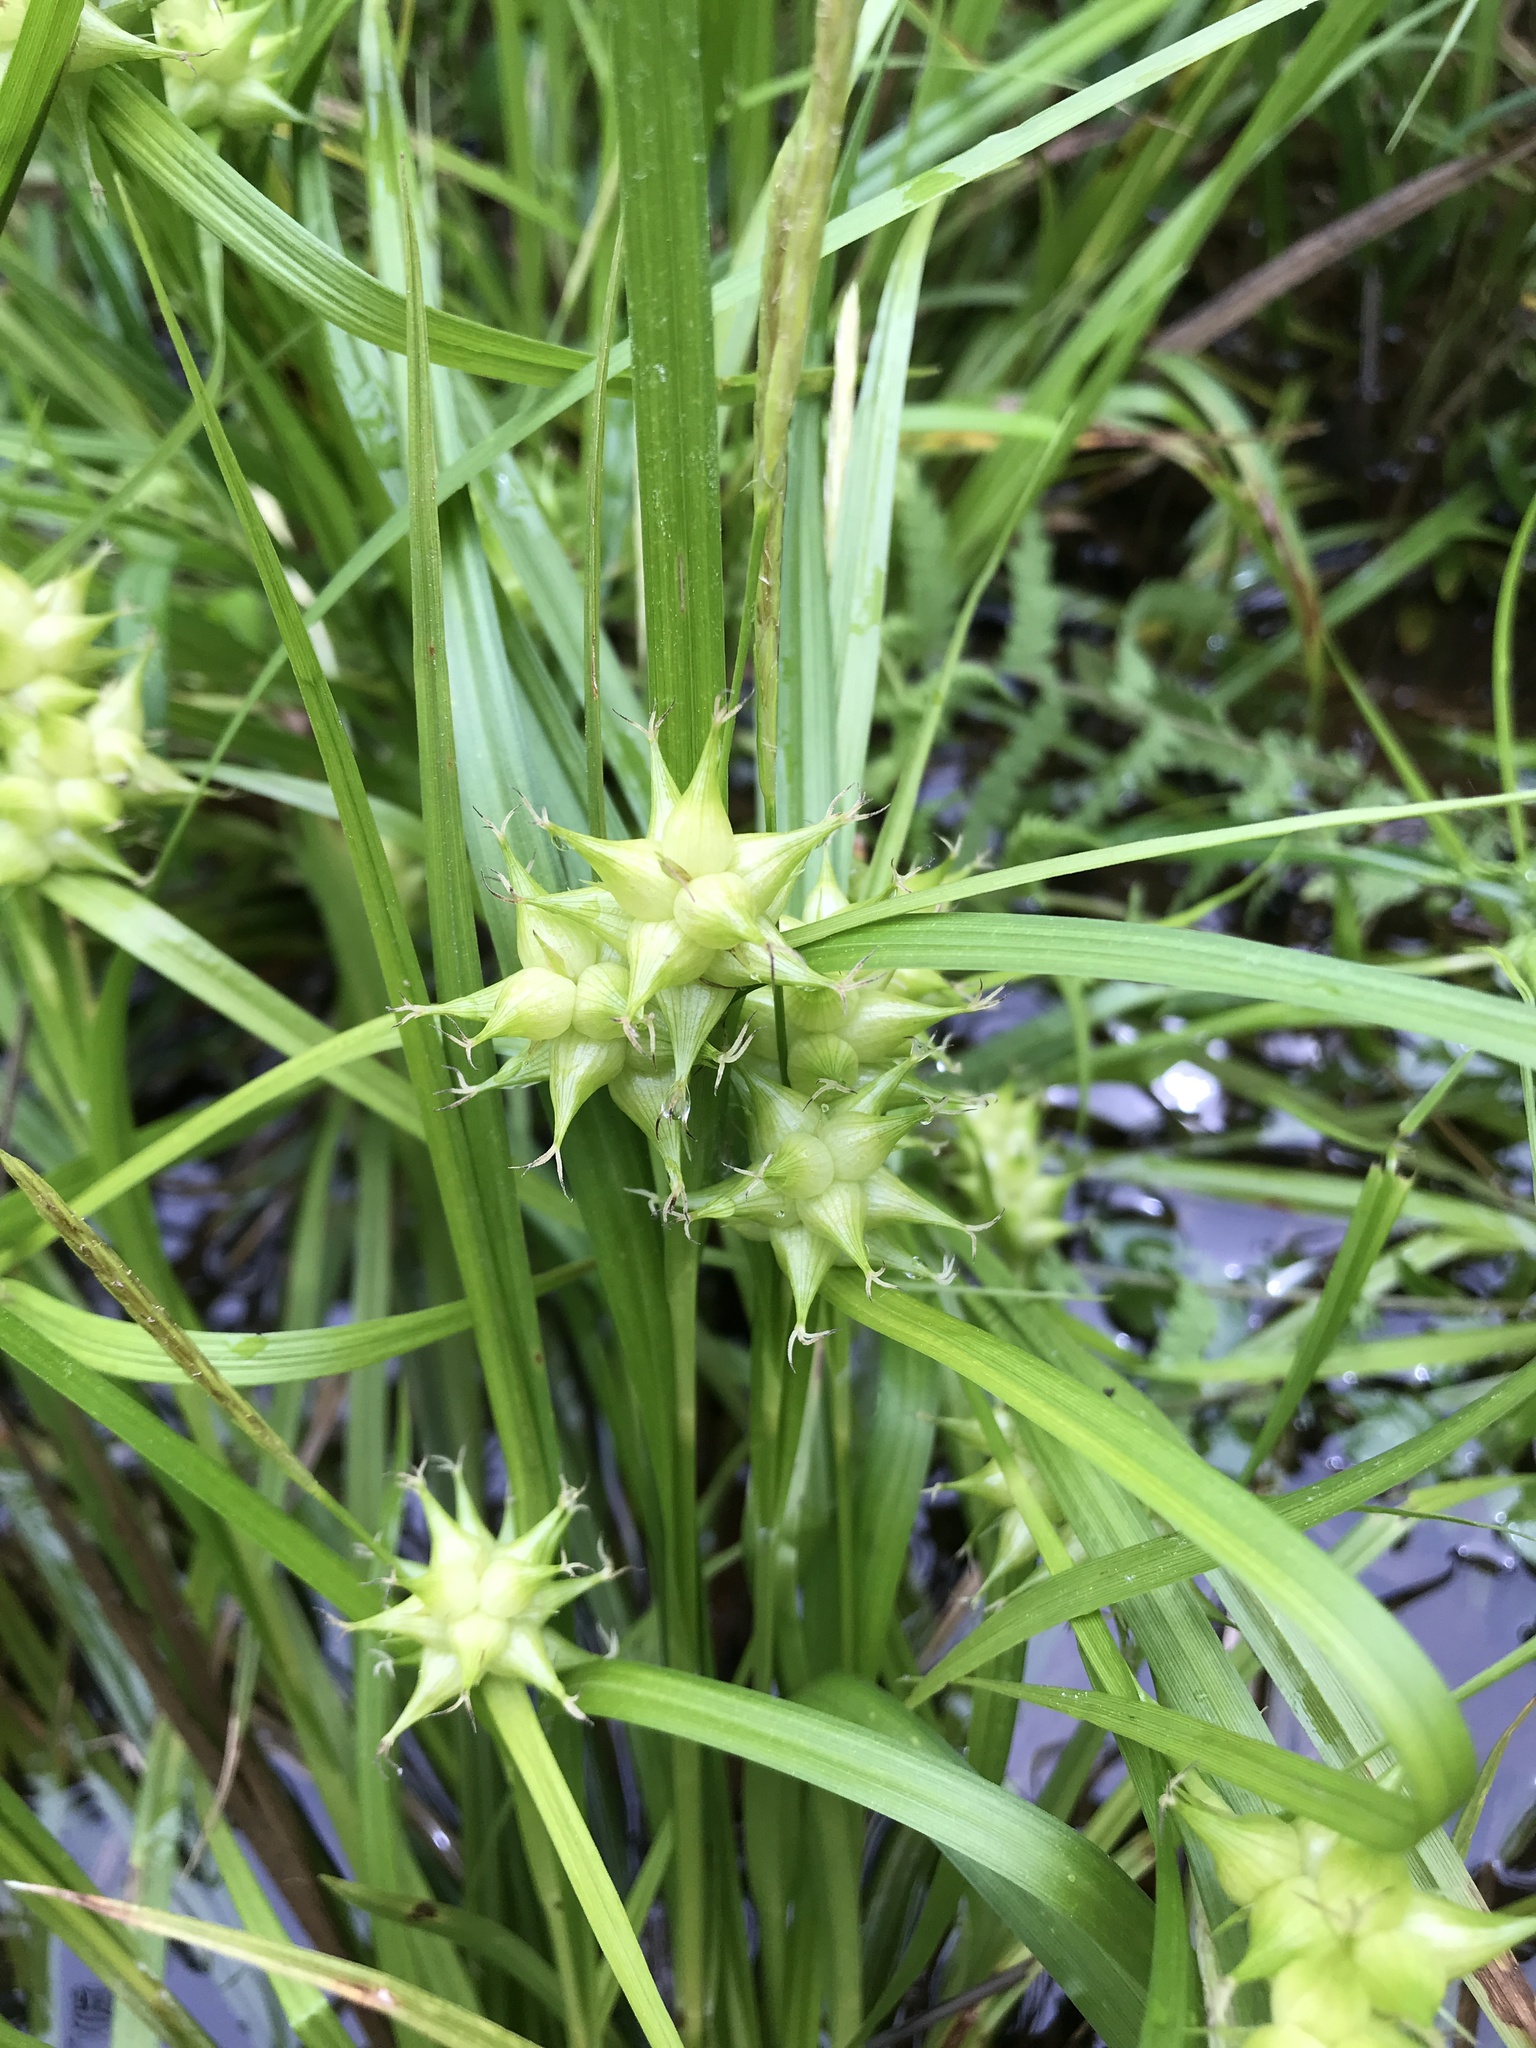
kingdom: Plantae
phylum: Tracheophyta
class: Liliopsida
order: Poales
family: Cyperaceae
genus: Carex
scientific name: Carex intumescens
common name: Greater bladder sedge
